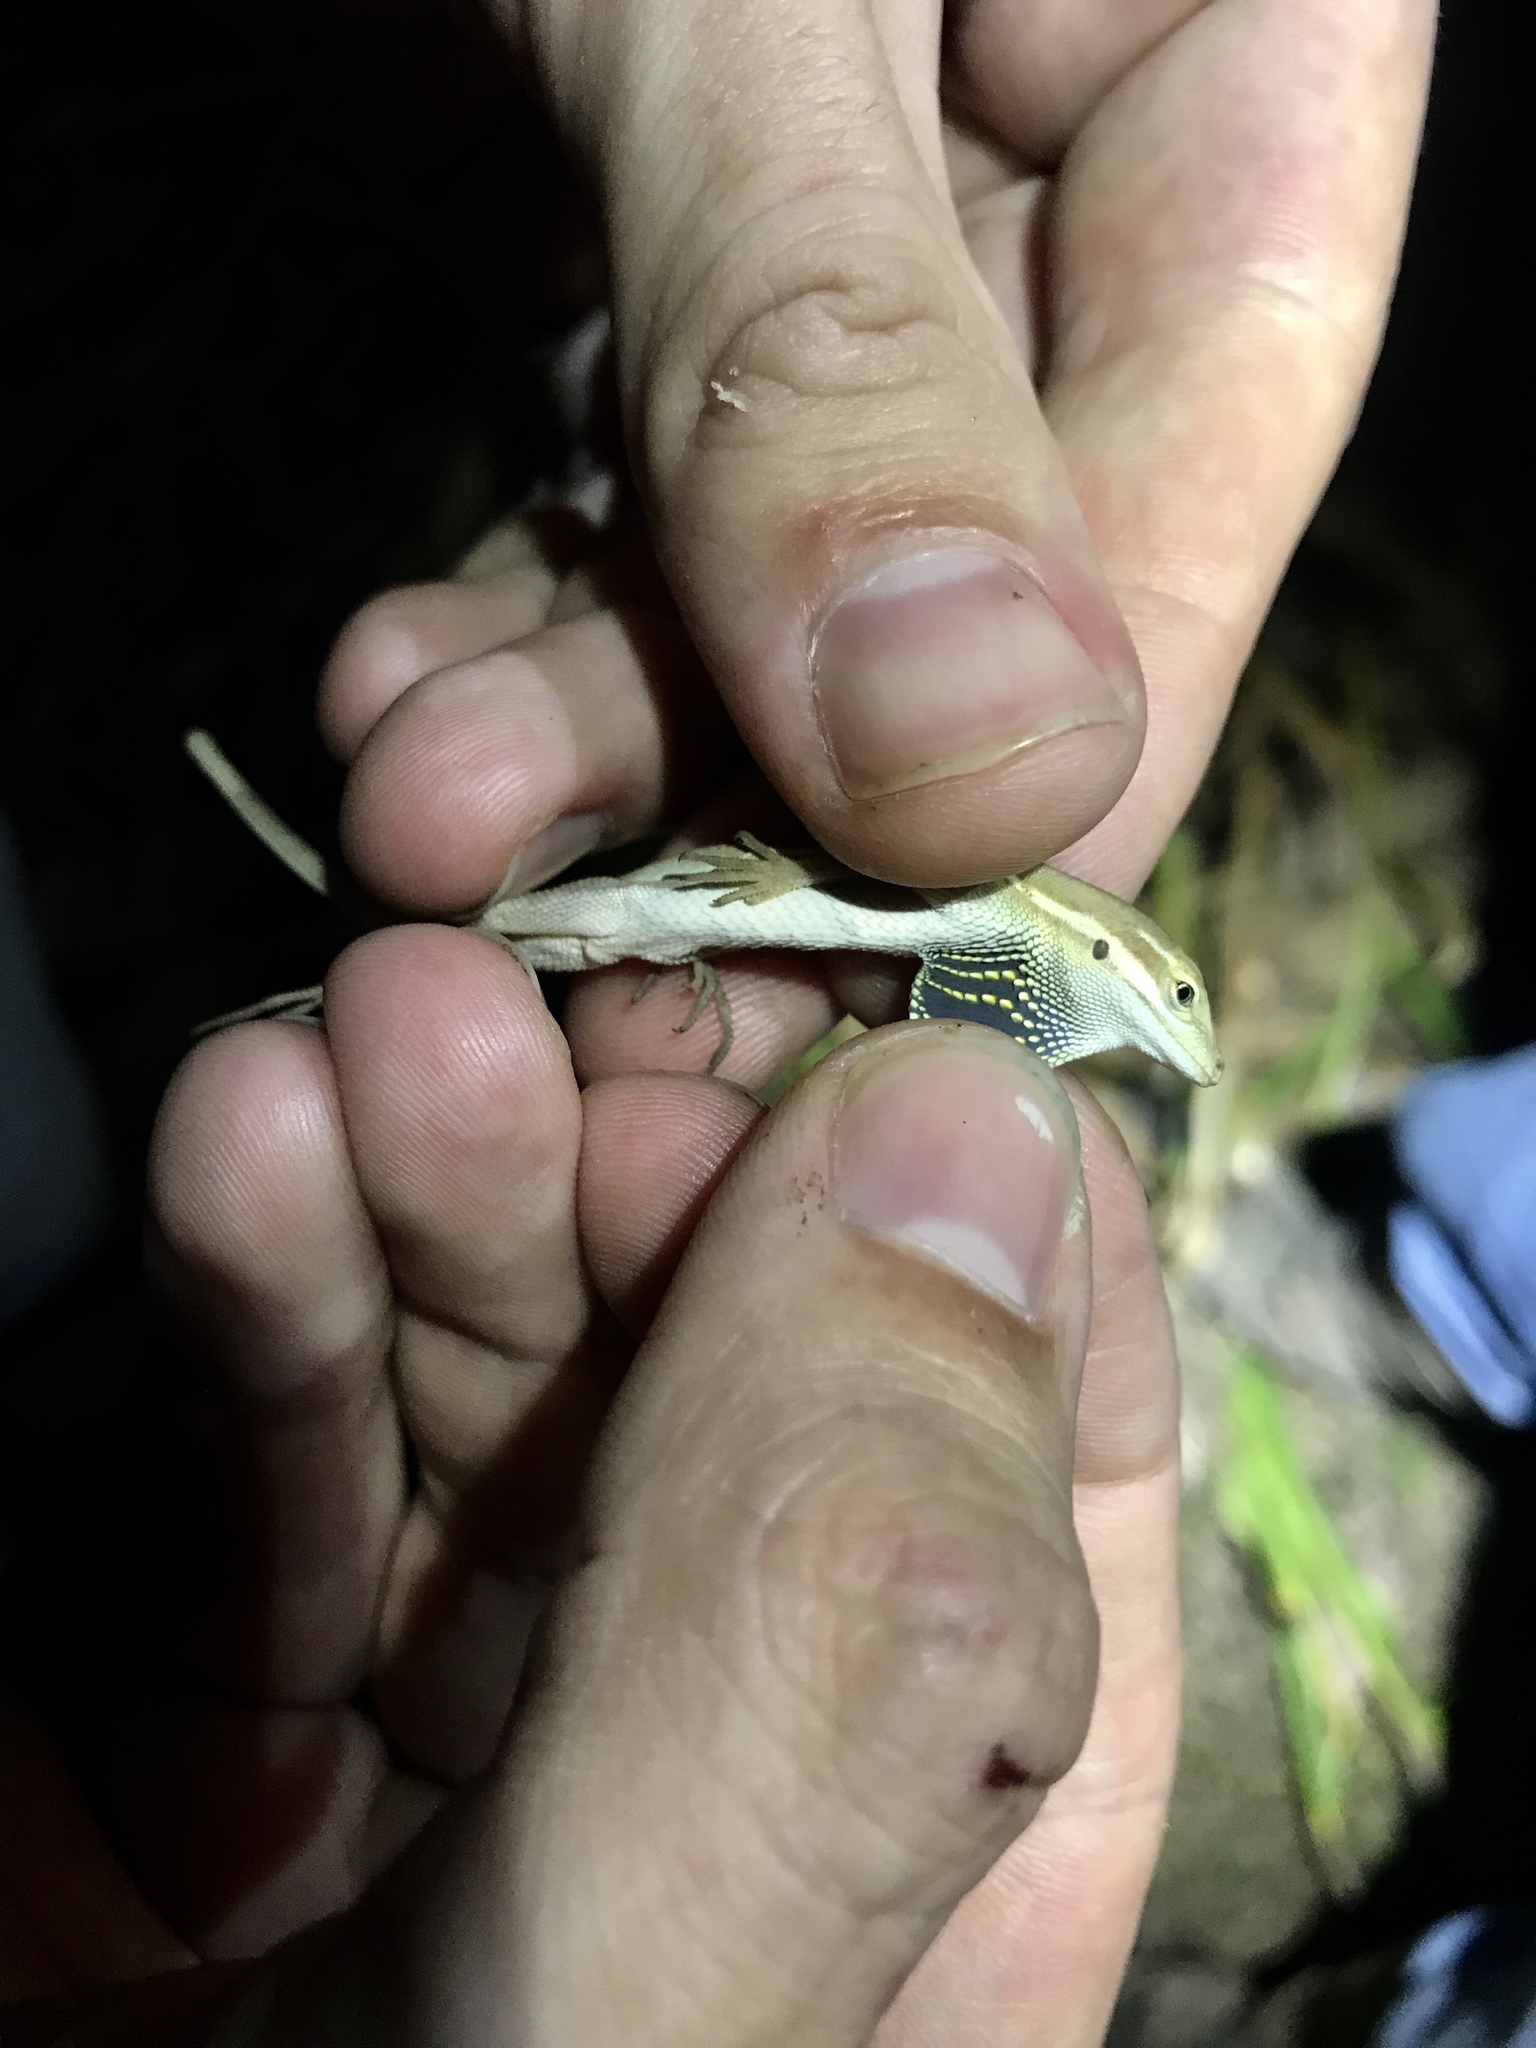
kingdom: Animalia
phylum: Chordata
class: Squamata
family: Dactyloidae
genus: Anolis
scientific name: Anolis auratus
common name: Grass anole
